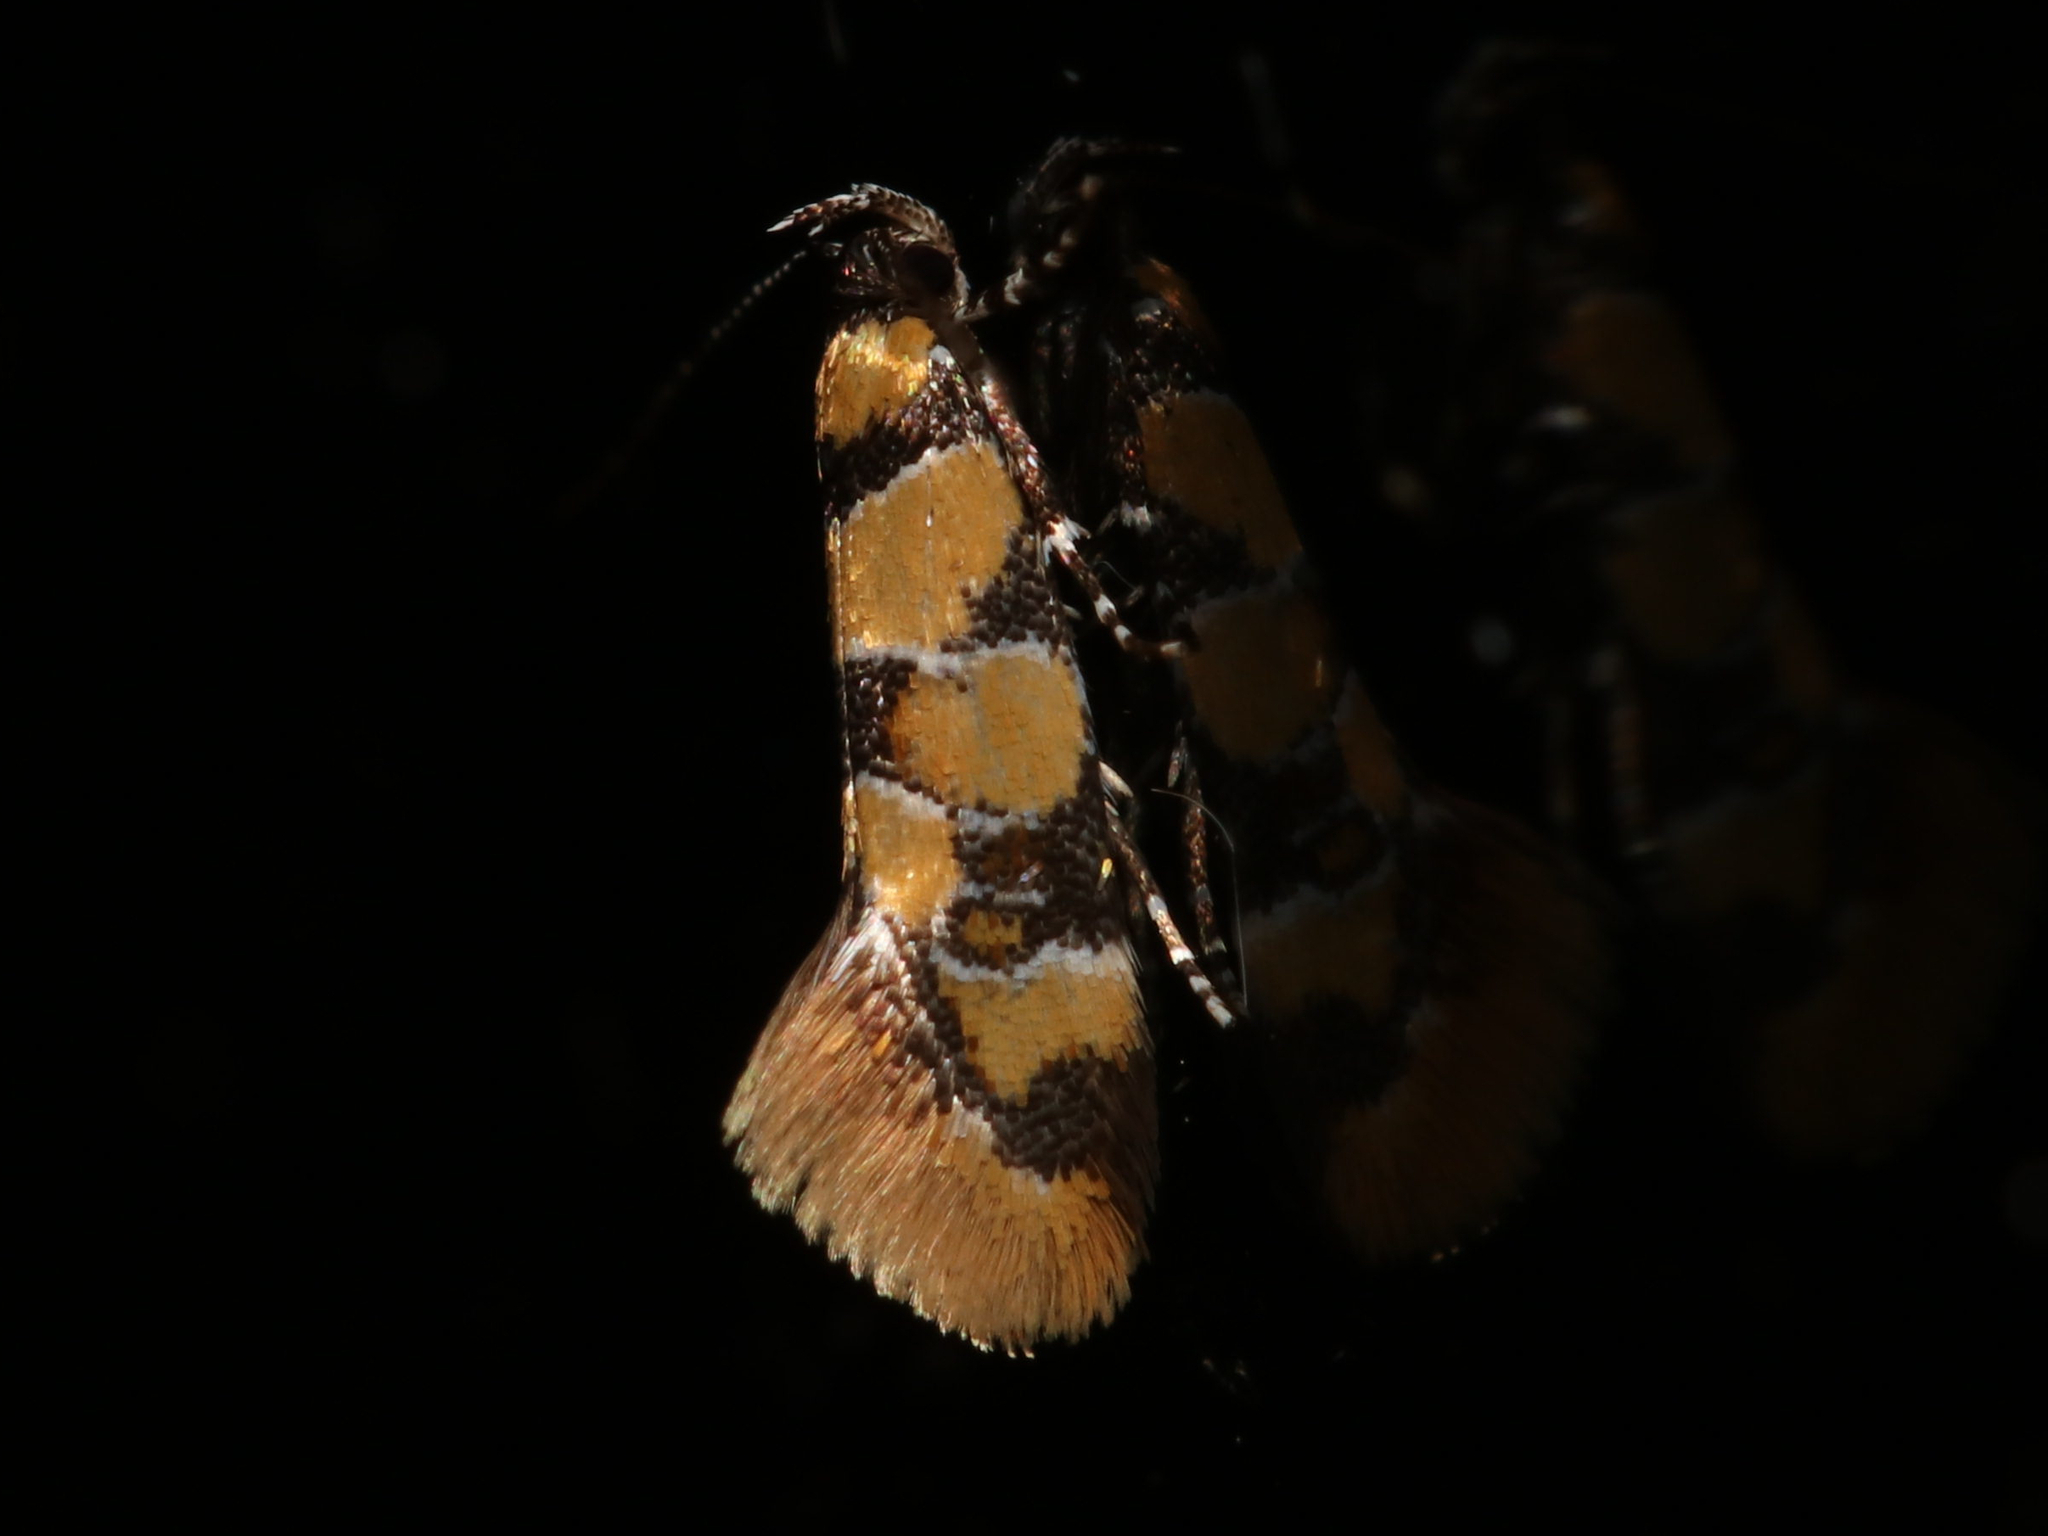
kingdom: Animalia
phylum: Arthropoda
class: Insecta
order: Lepidoptera
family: Oecophoridae
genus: Decantha
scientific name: Decantha borkhausenii
